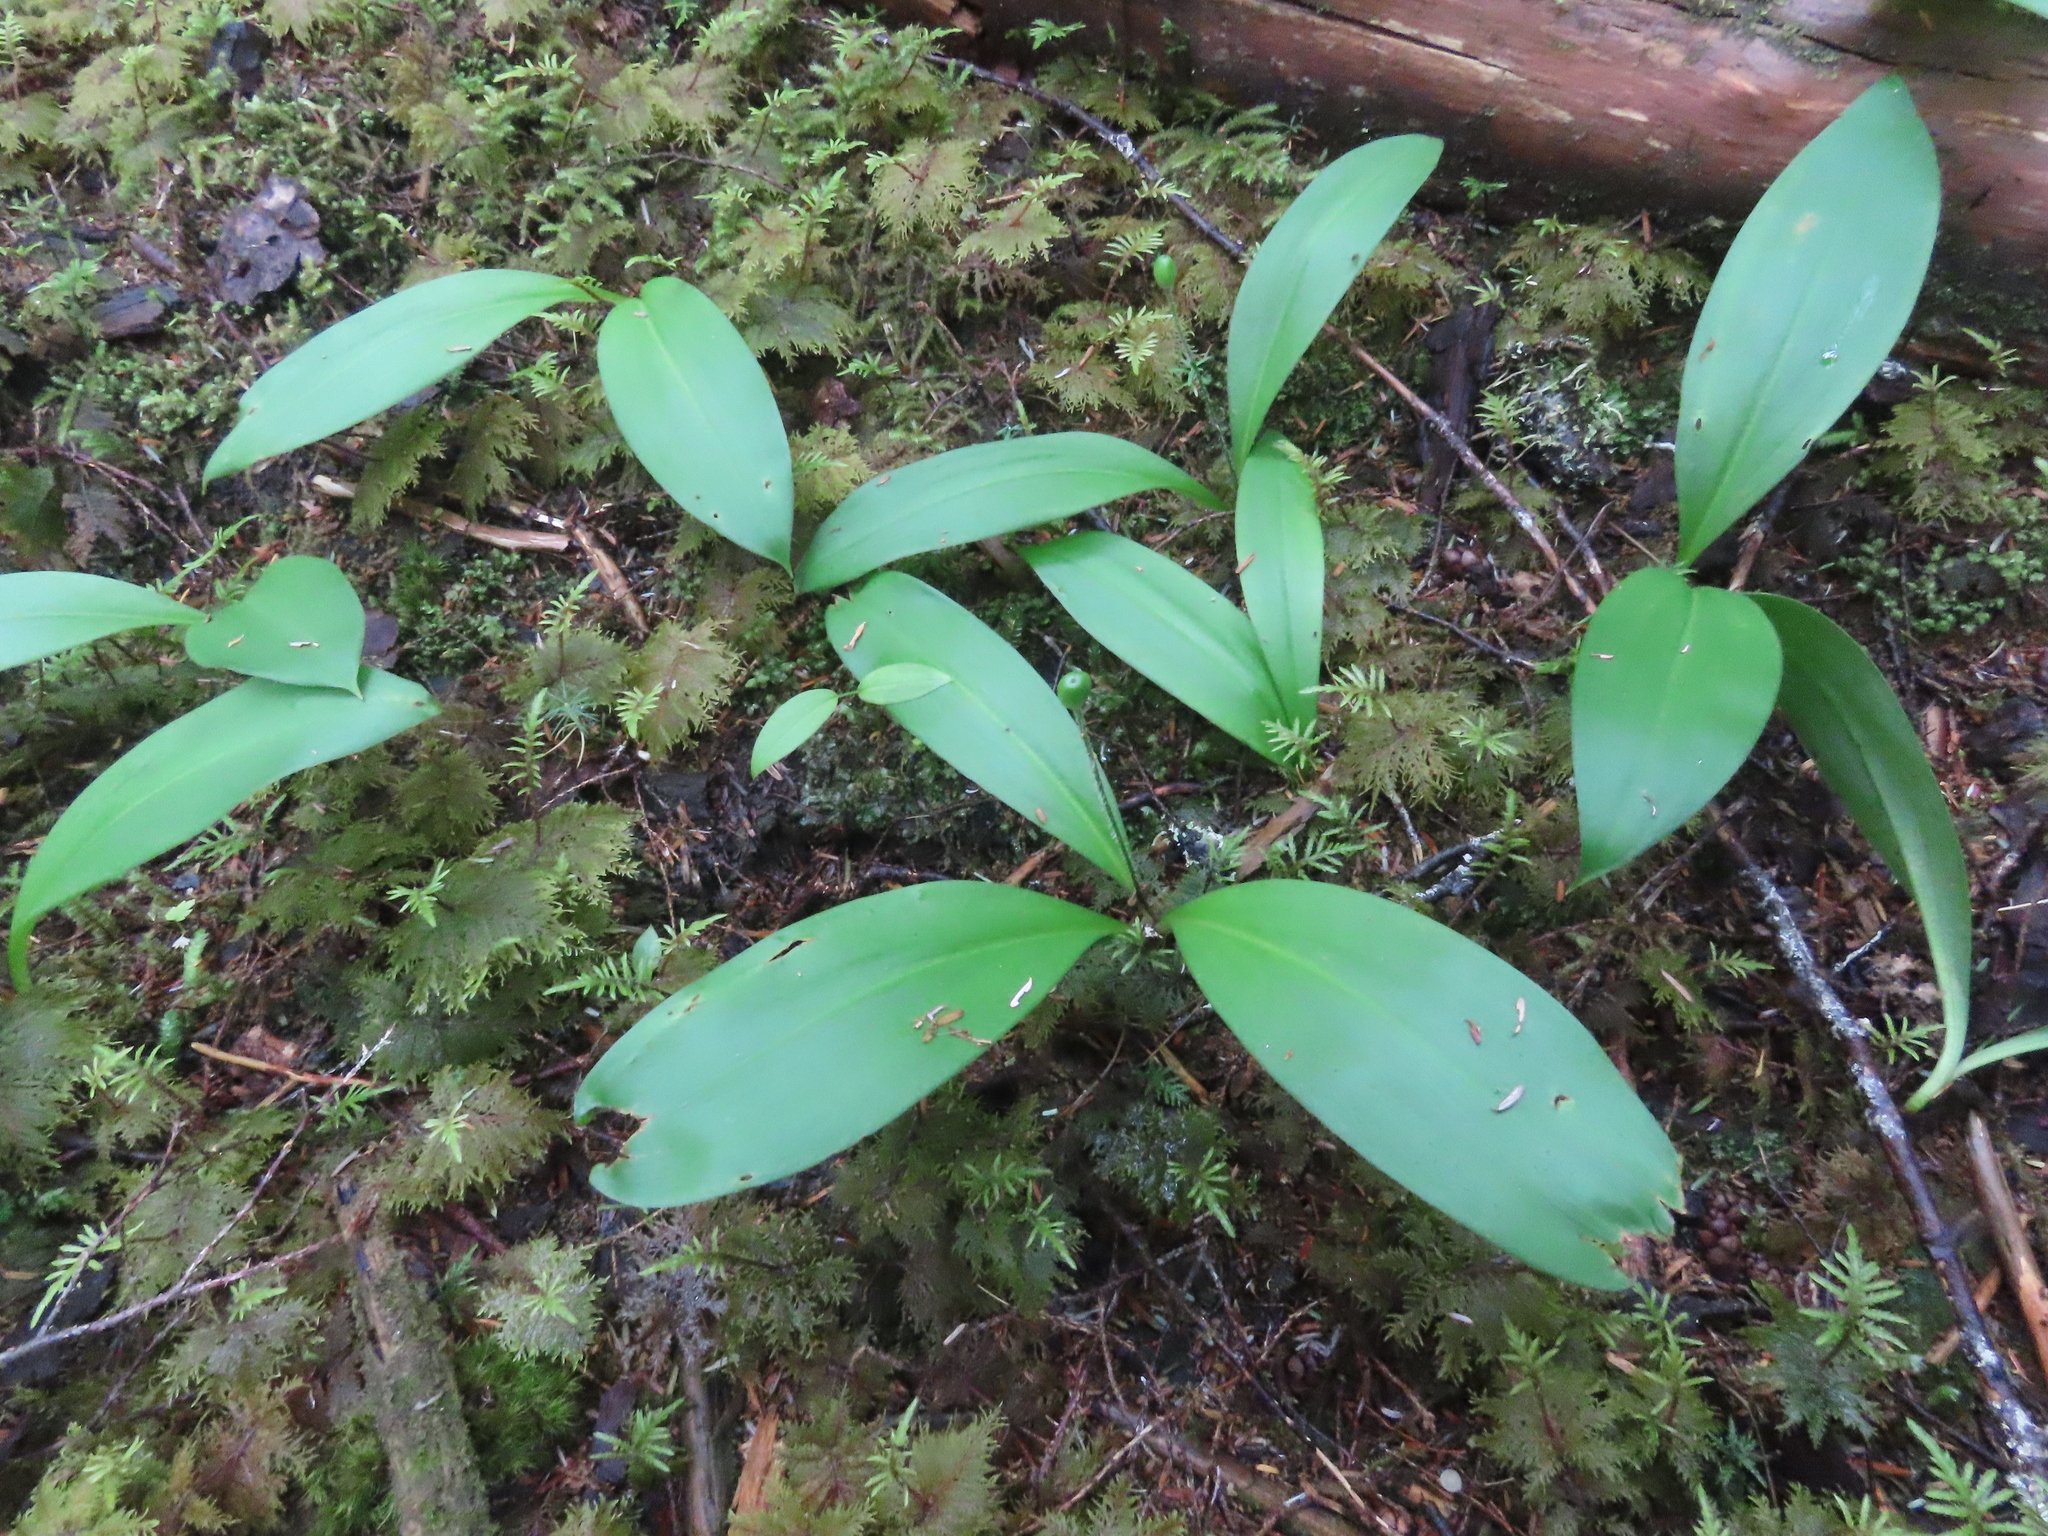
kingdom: Plantae
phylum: Tracheophyta
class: Liliopsida
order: Liliales
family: Liliaceae
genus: Clintonia
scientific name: Clintonia uniflora
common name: Queen's cup
